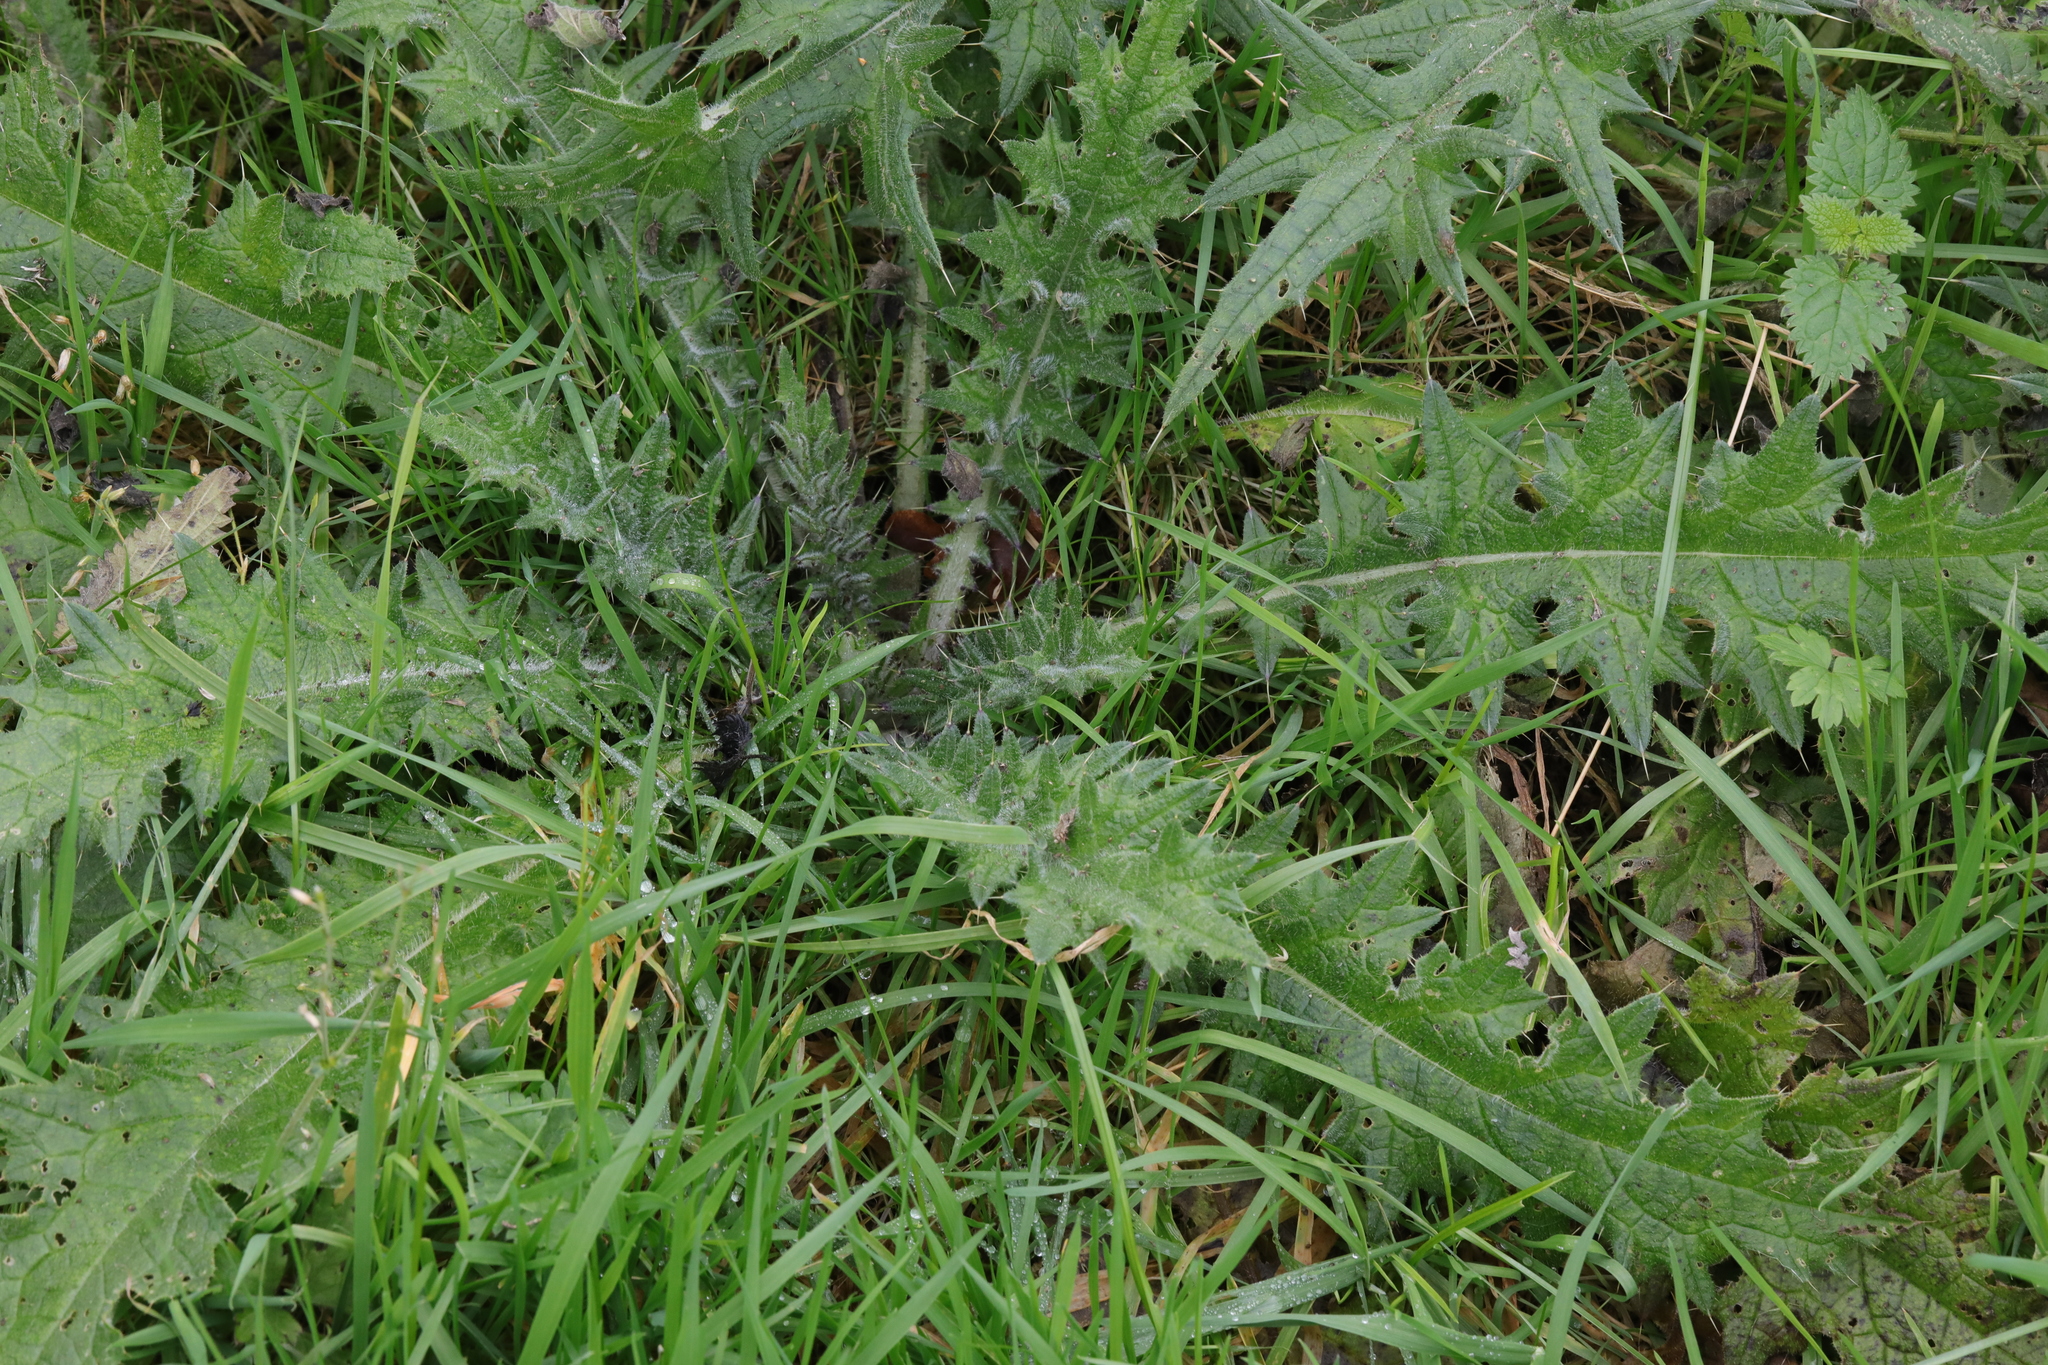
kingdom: Plantae
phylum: Tracheophyta
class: Magnoliopsida
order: Asterales
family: Asteraceae
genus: Cirsium
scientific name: Cirsium vulgare
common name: Bull thistle
